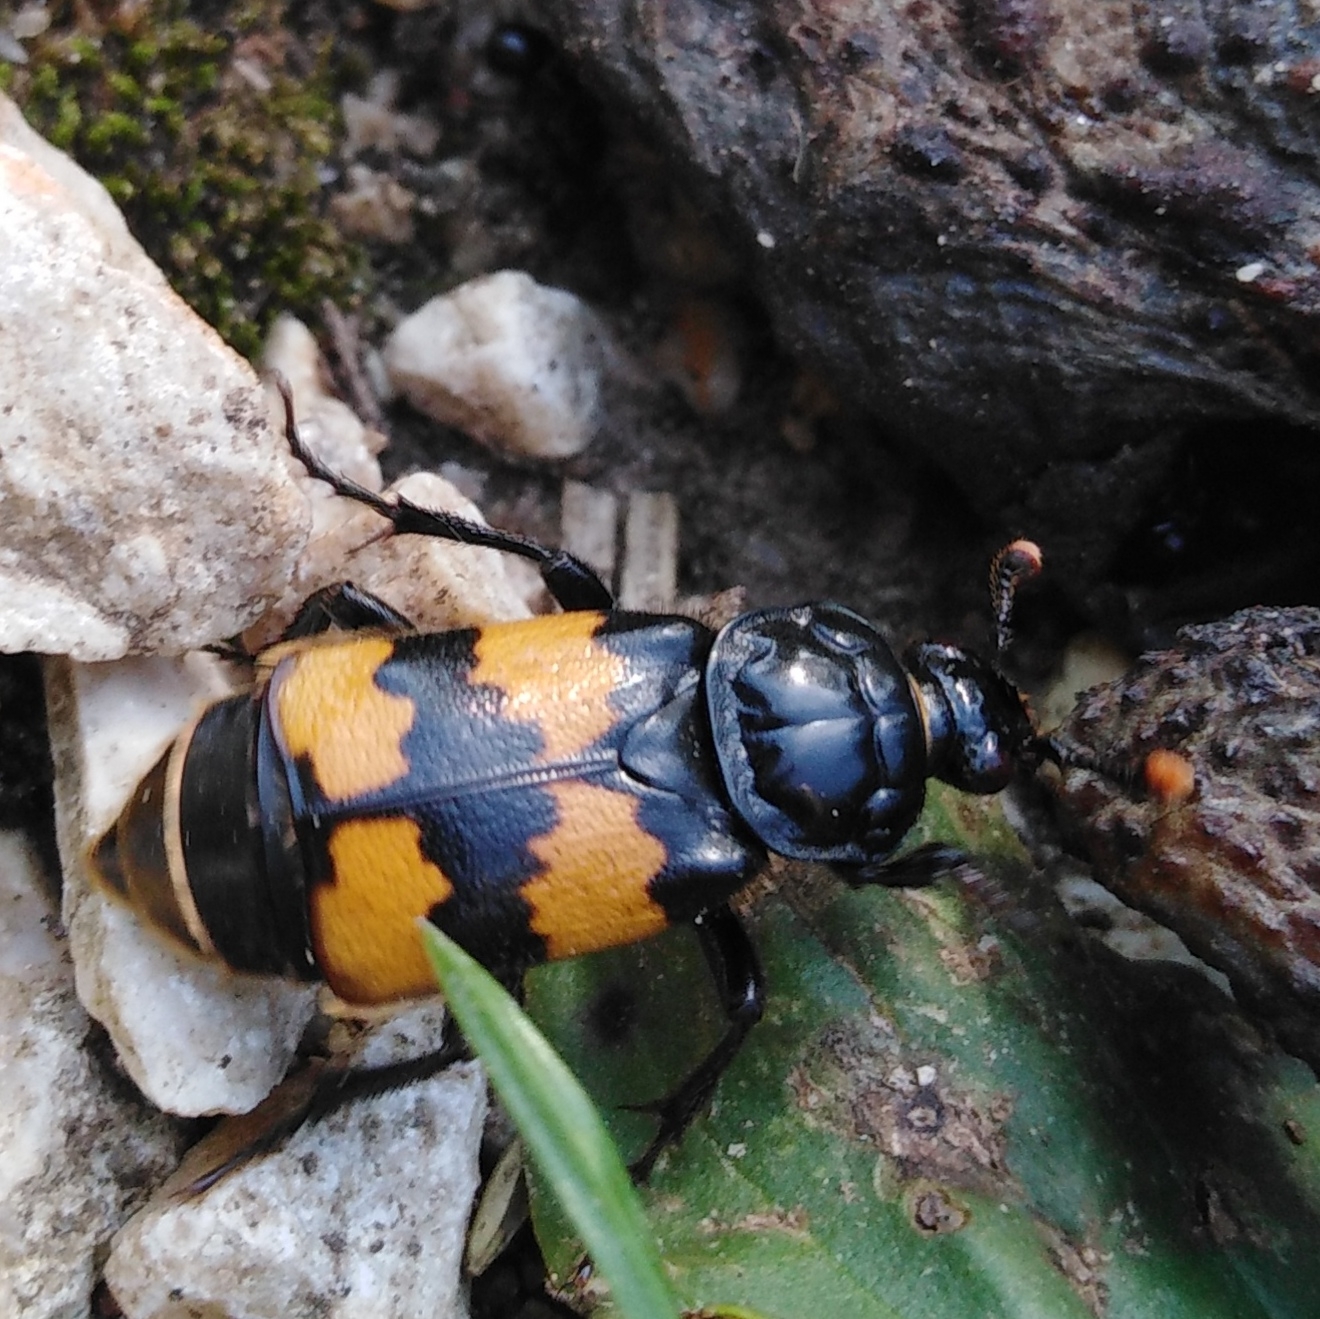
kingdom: Animalia
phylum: Arthropoda
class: Insecta
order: Coleoptera
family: Staphylinidae
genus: Nicrophorus
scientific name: Nicrophorus interruptus
